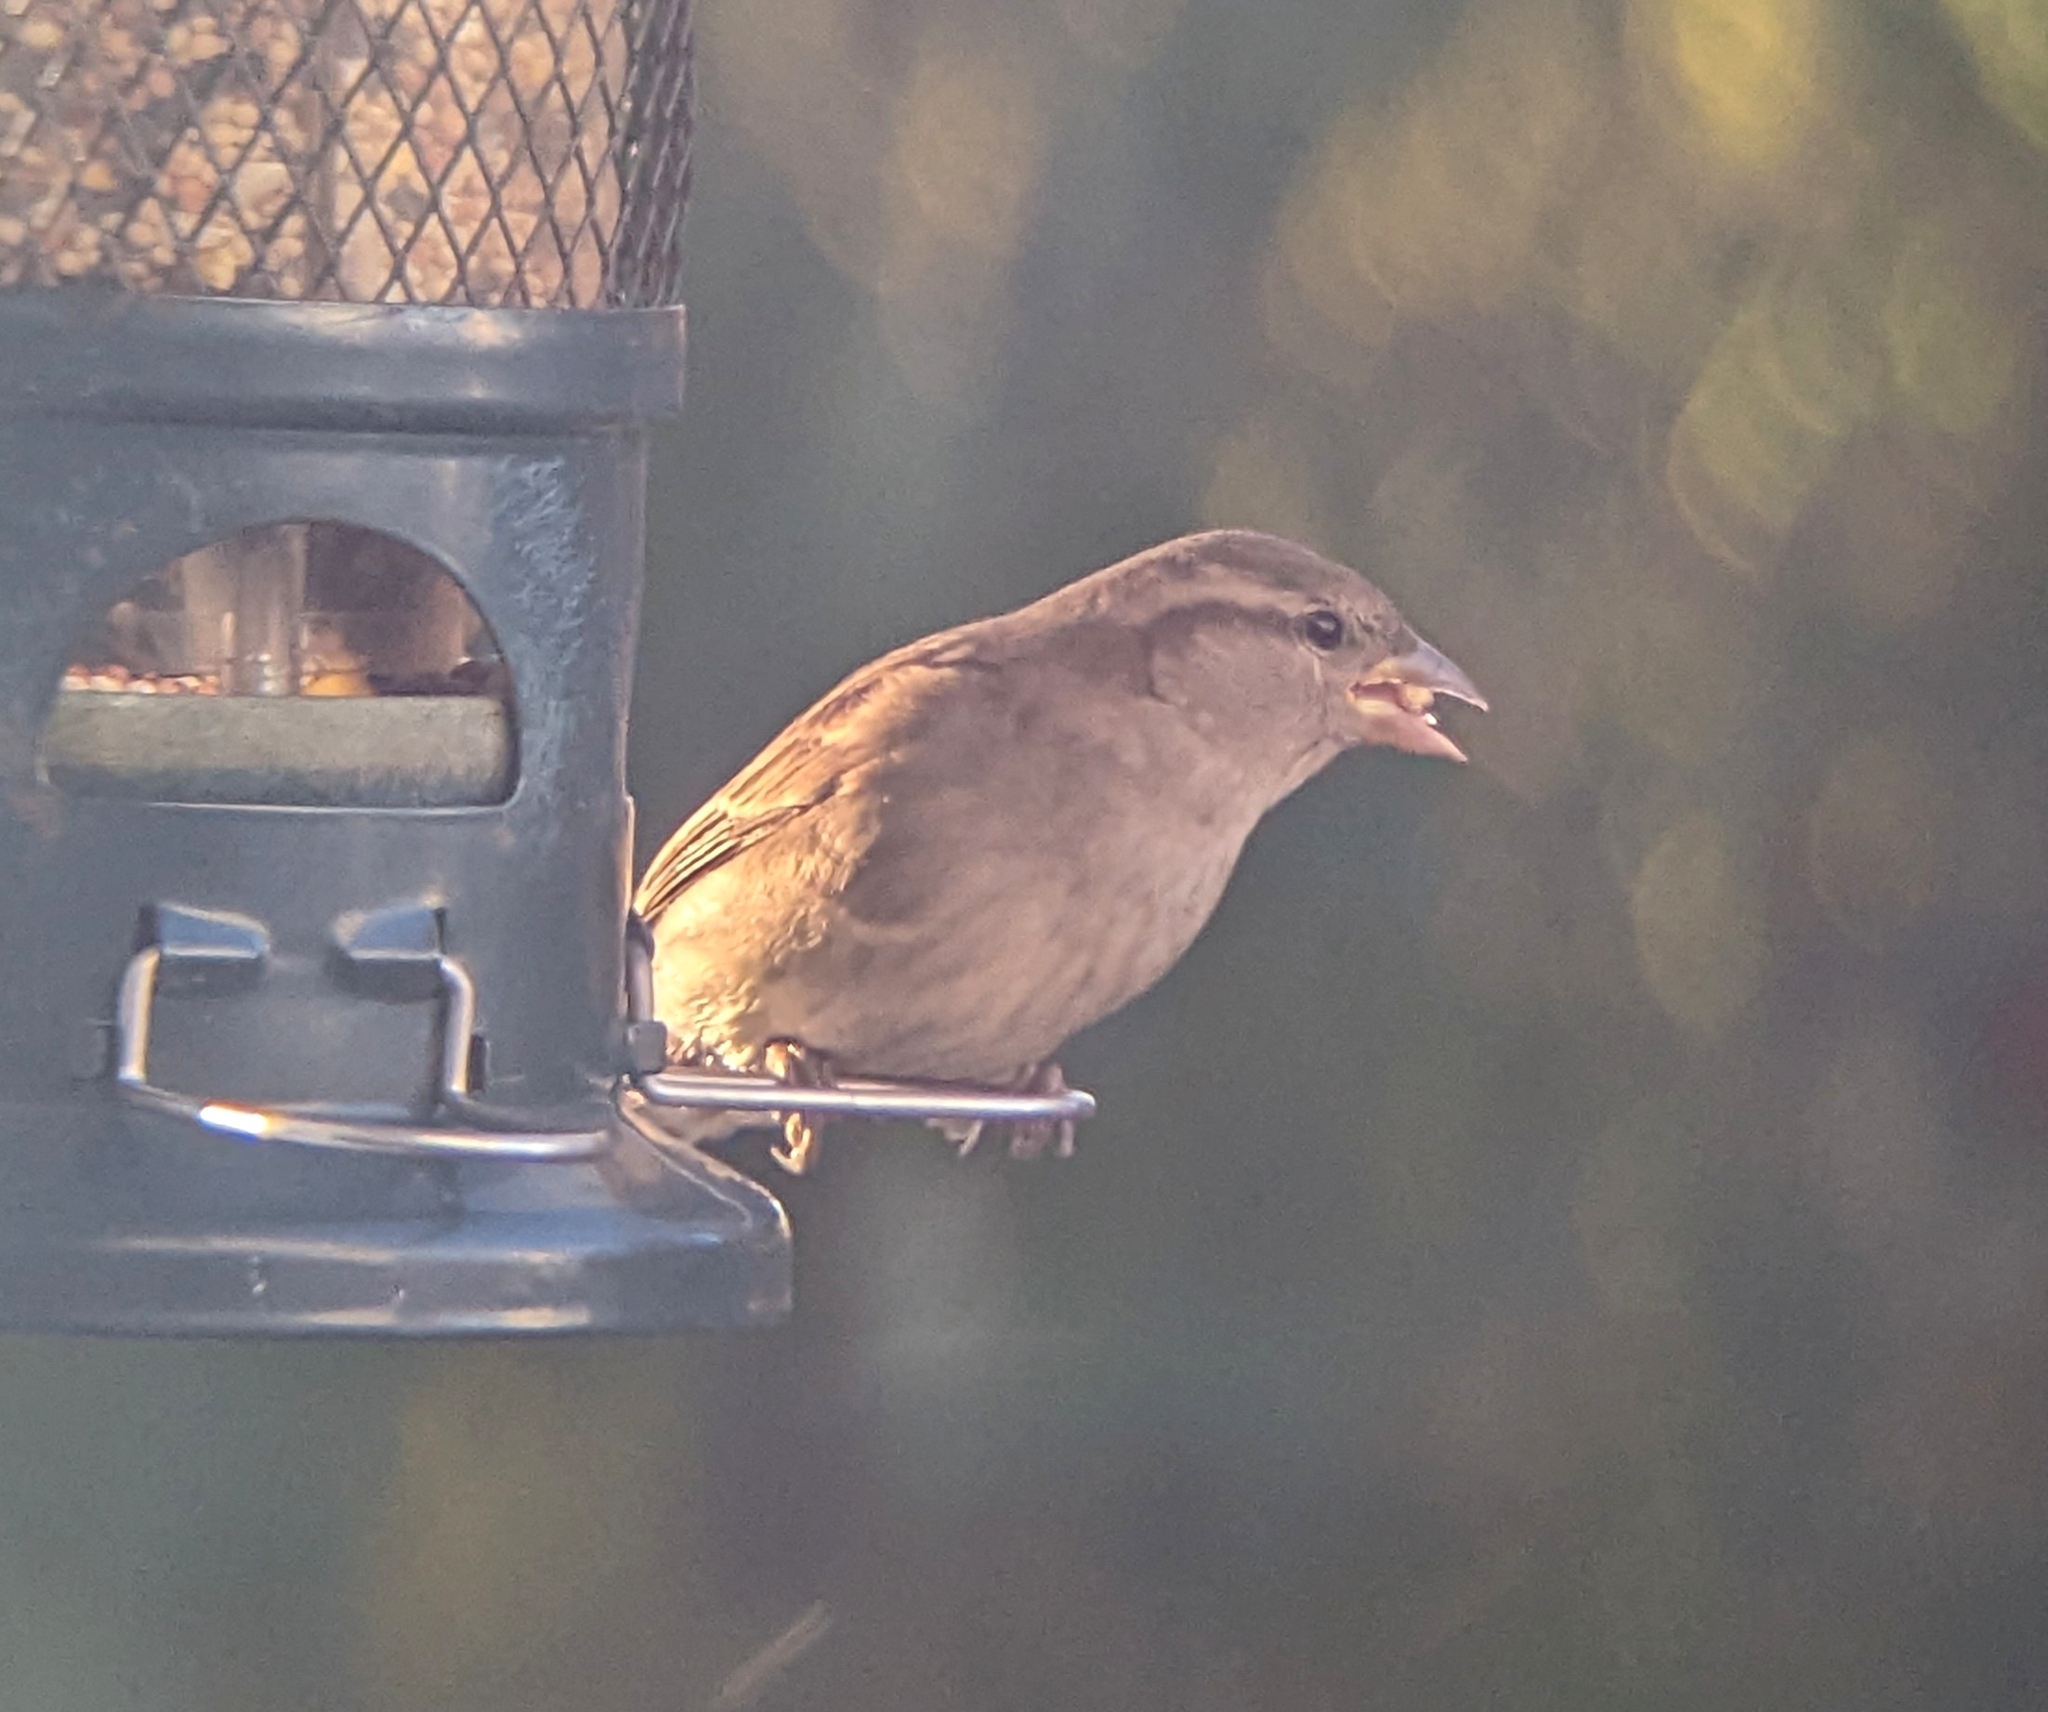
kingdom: Animalia
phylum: Chordata
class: Aves
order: Passeriformes
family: Passeridae
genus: Passer
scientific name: Passer domesticus
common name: House sparrow
